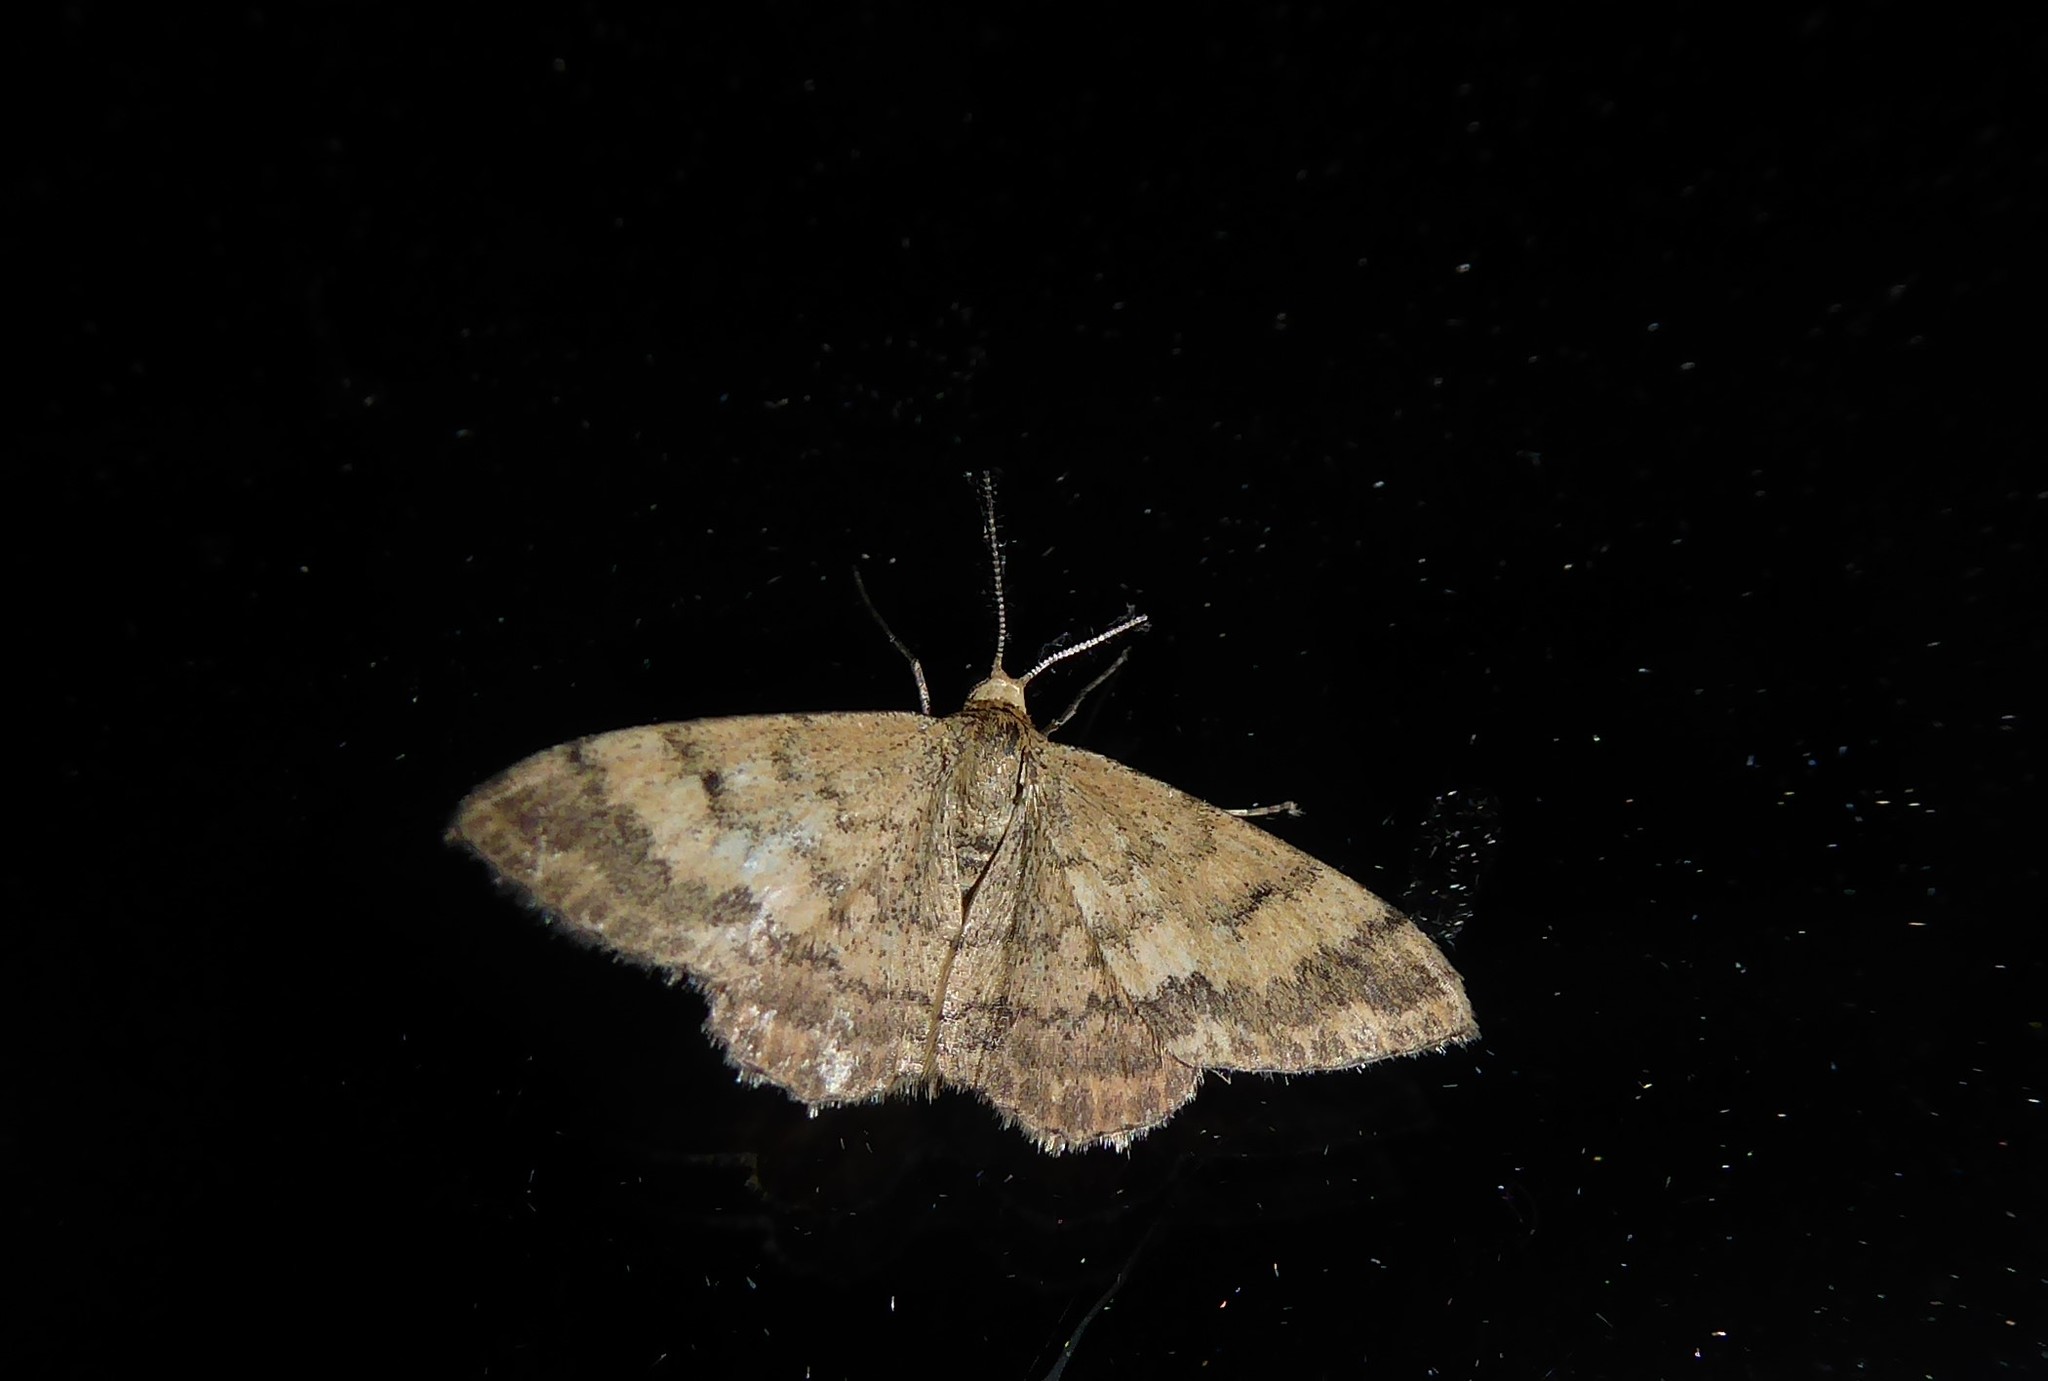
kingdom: Animalia
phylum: Arthropoda
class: Insecta
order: Lepidoptera
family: Geometridae
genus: Scopula
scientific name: Scopula rubraria
